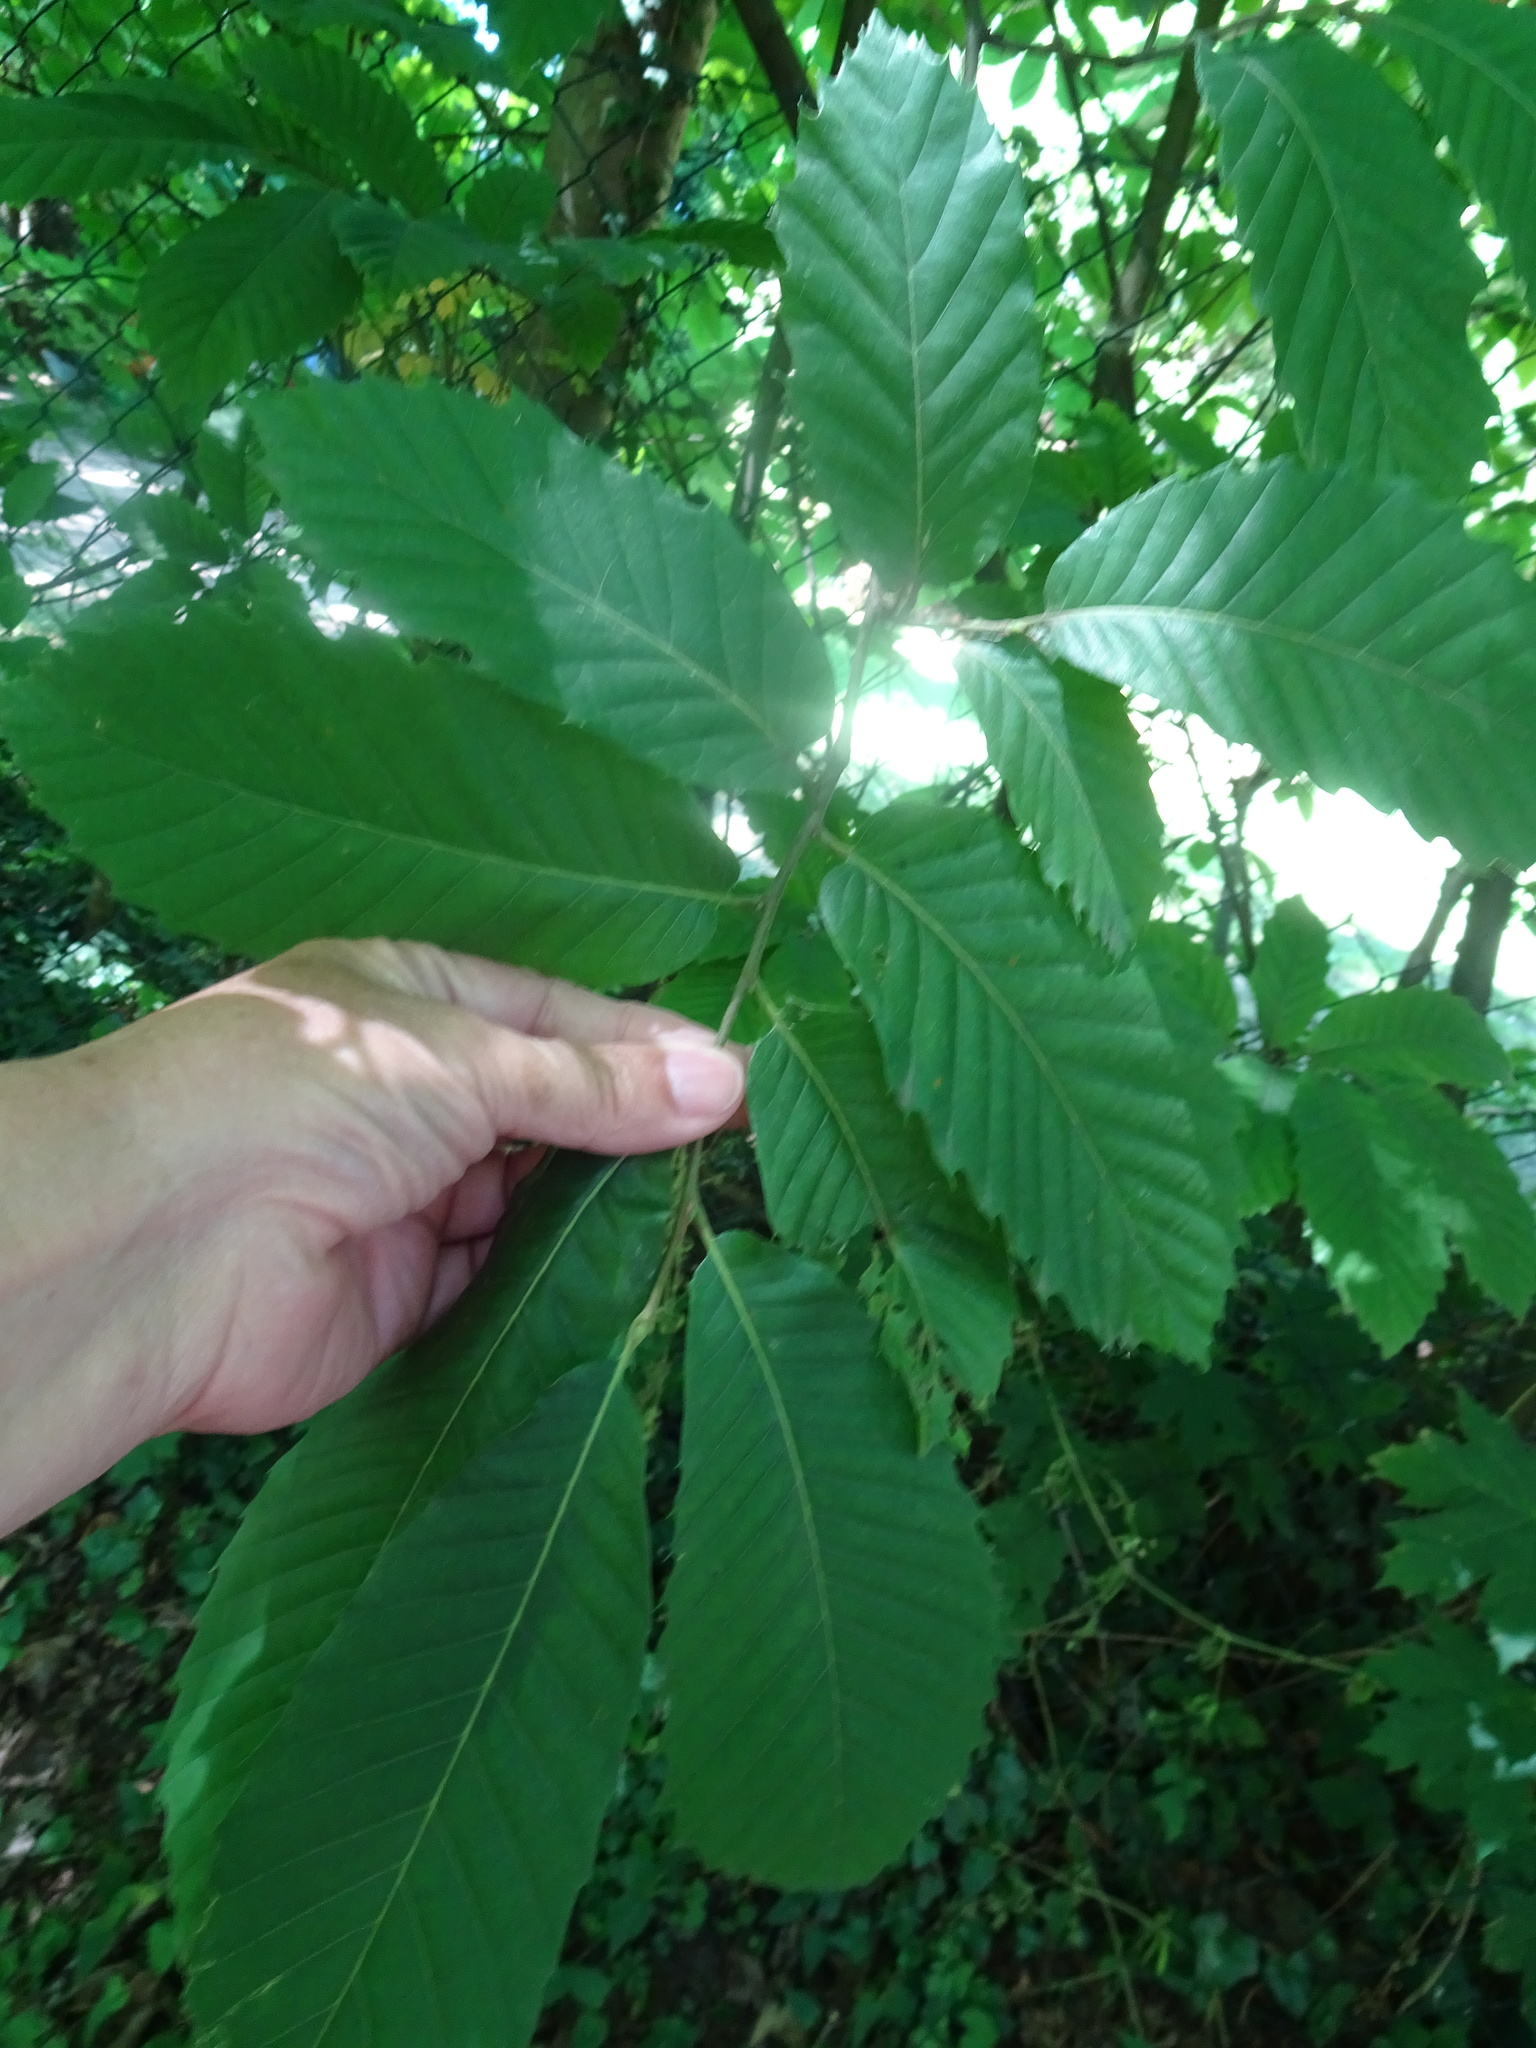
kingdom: Plantae
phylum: Tracheophyta
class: Magnoliopsida
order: Fagales
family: Fagaceae
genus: Castanea
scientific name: Castanea sativa
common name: Sweet chestnut
